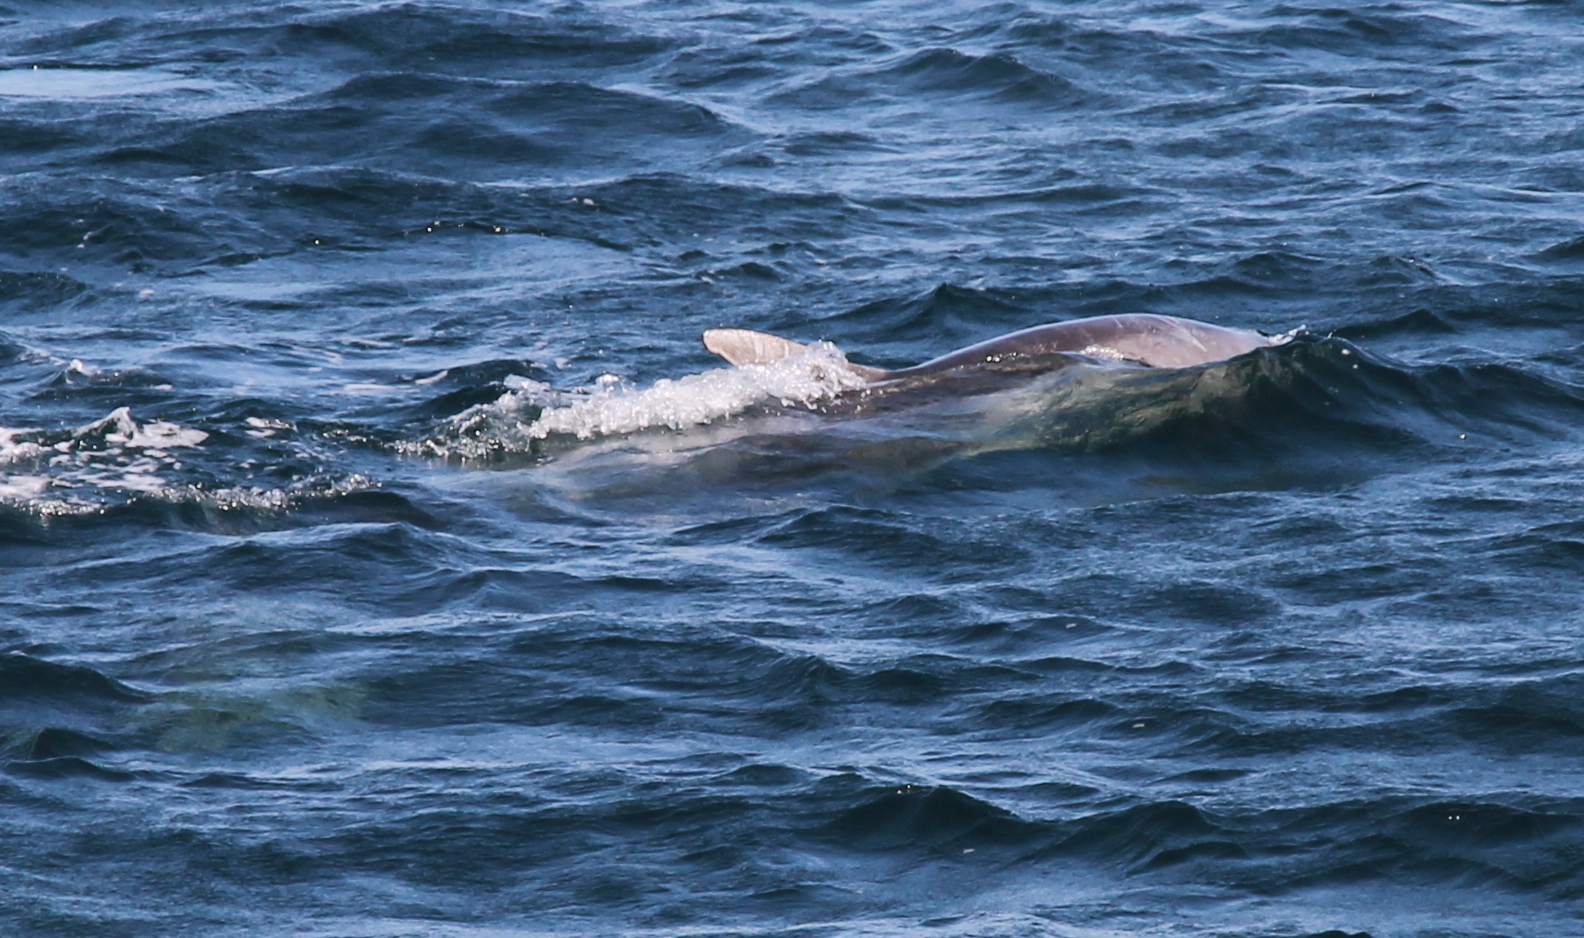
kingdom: Animalia
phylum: Chordata
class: Mammalia
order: Cetacea
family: Delphinidae
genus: Tursiops
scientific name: Tursiops truncatus
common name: Bottlenose dolphin
